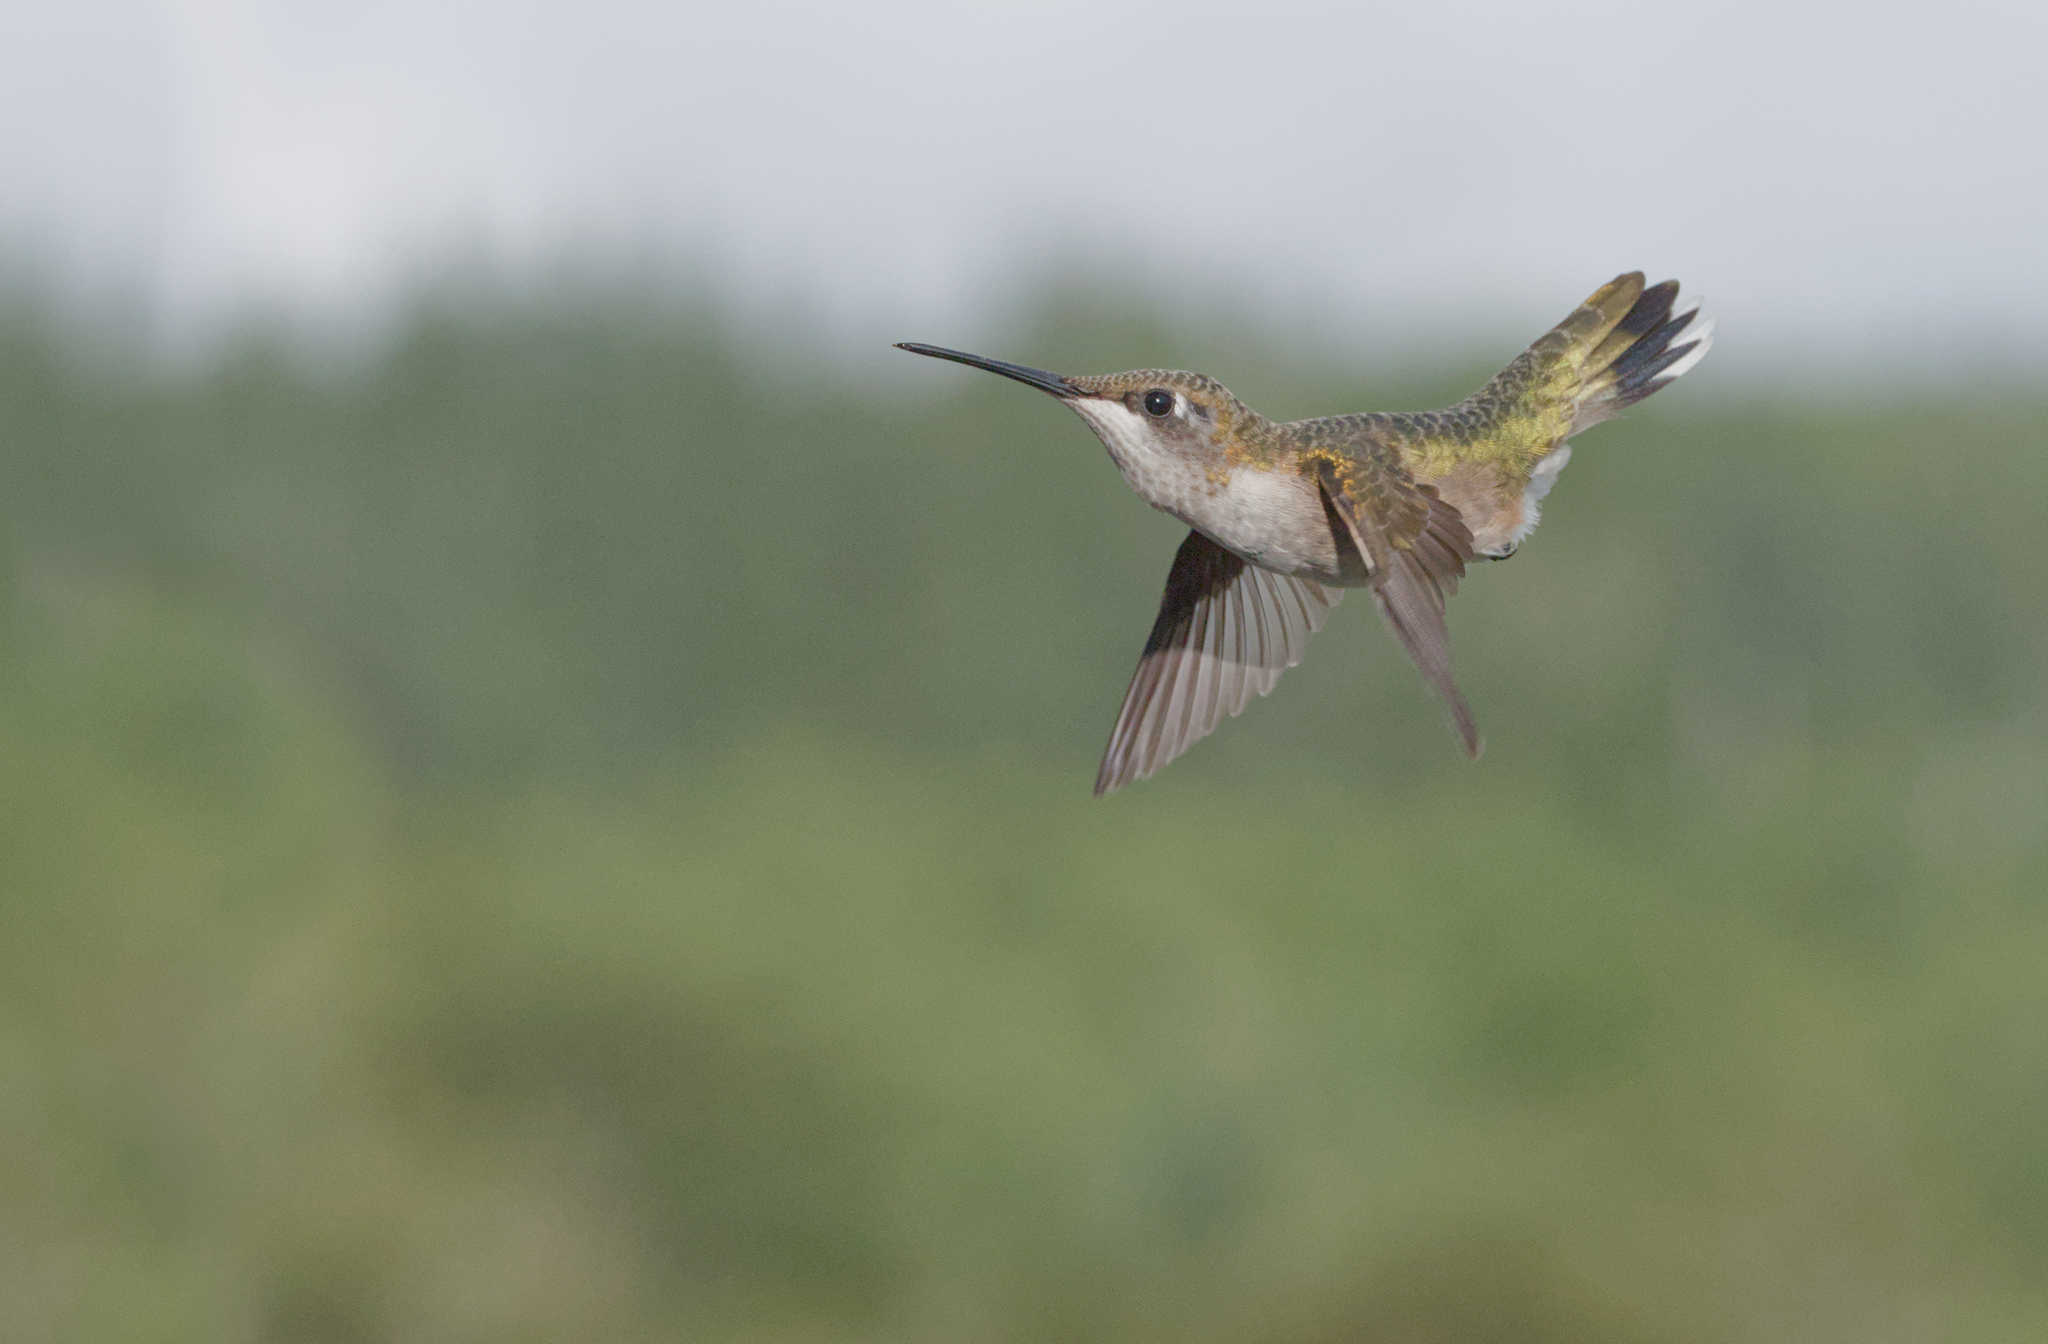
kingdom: Animalia
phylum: Chordata
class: Aves
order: Apodiformes
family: Trochilidae
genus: Archilochus
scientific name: Archilochus colubris
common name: Ruby-throated hummingbird
